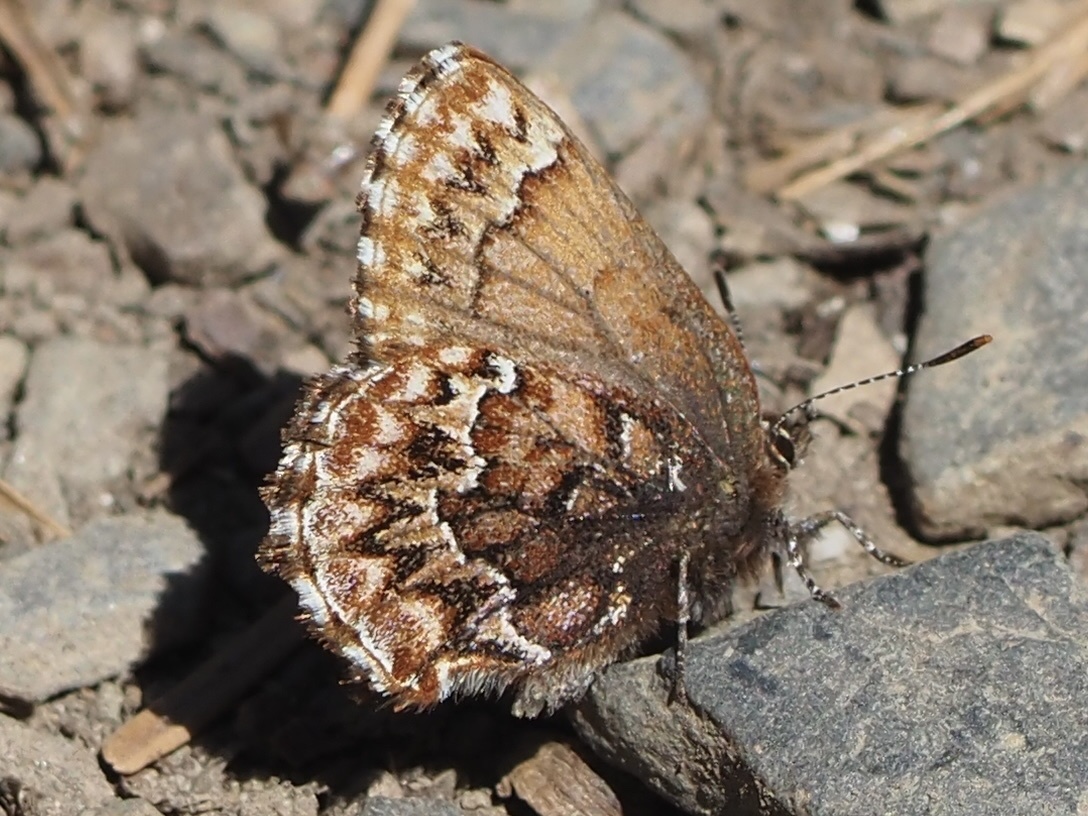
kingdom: Animalia
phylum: Arthropoda
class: Insecta
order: Lepidoptera
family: Lycaenidae
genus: Incisalia
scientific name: Incisalia eryphon
